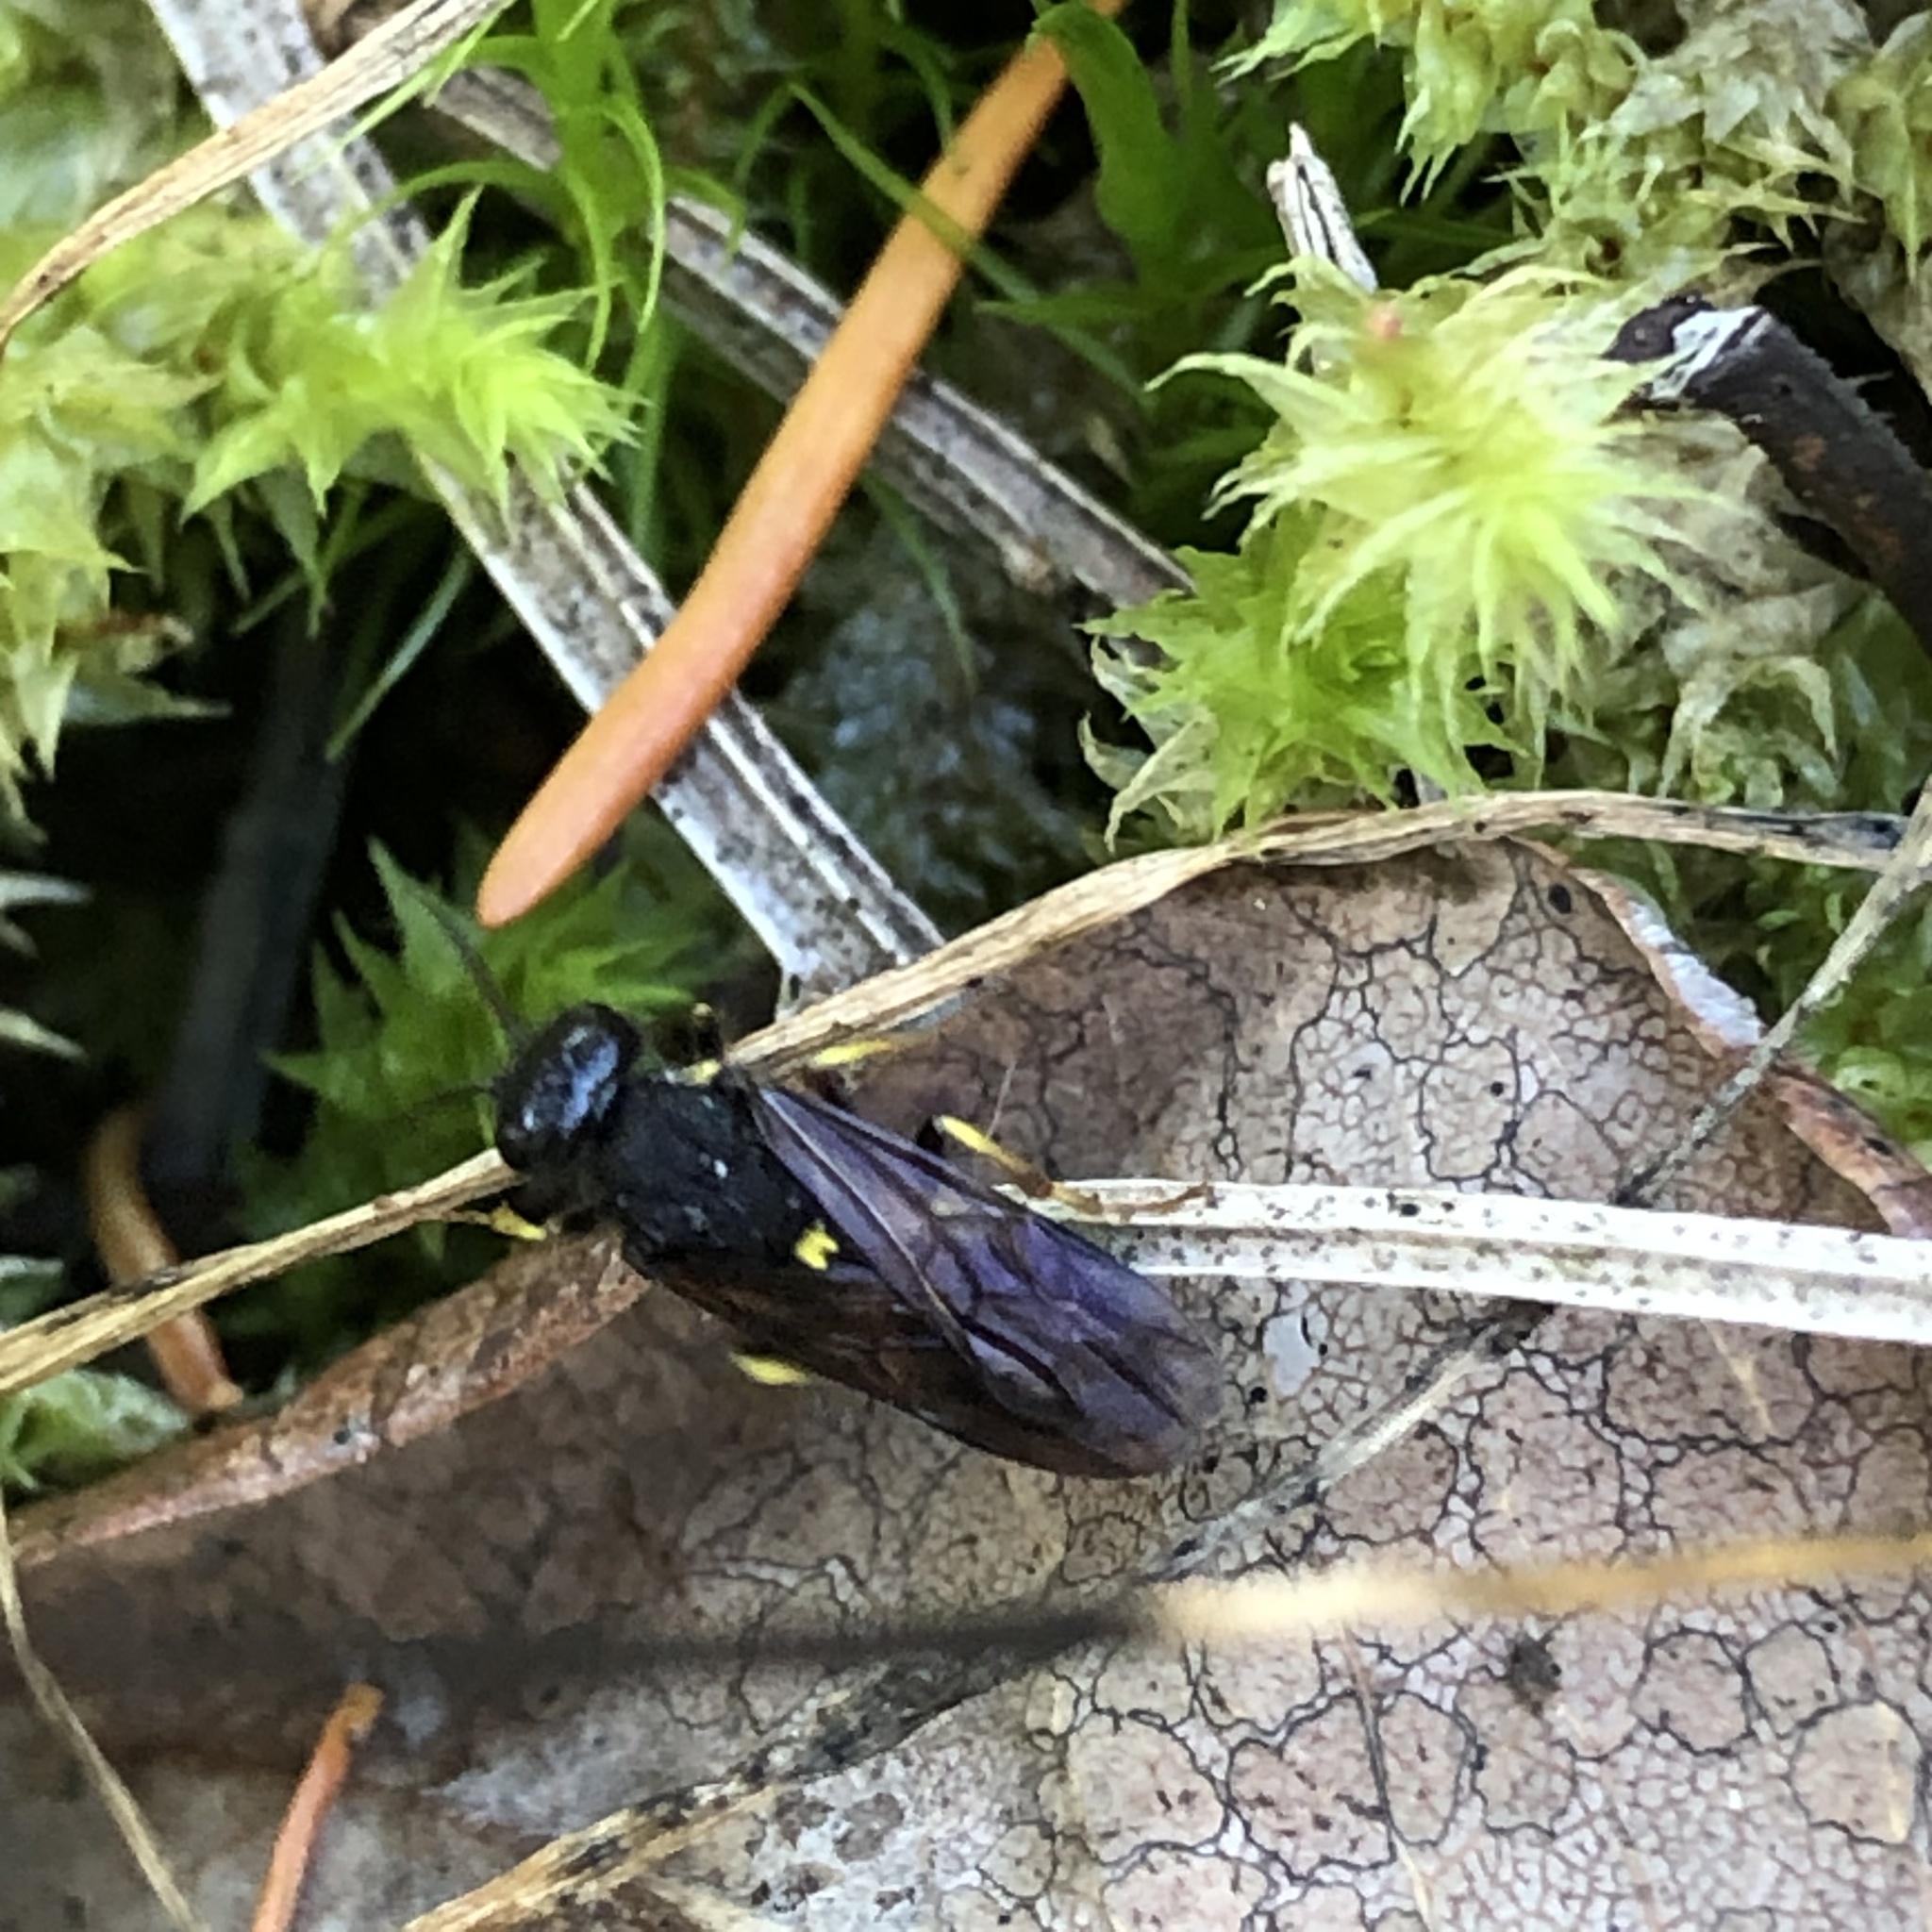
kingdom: Animalia
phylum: Arthropoda
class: Insecta
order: Hymenoptera
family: Trigonalidae
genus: Bareogonalos
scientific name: Bareogonalos
